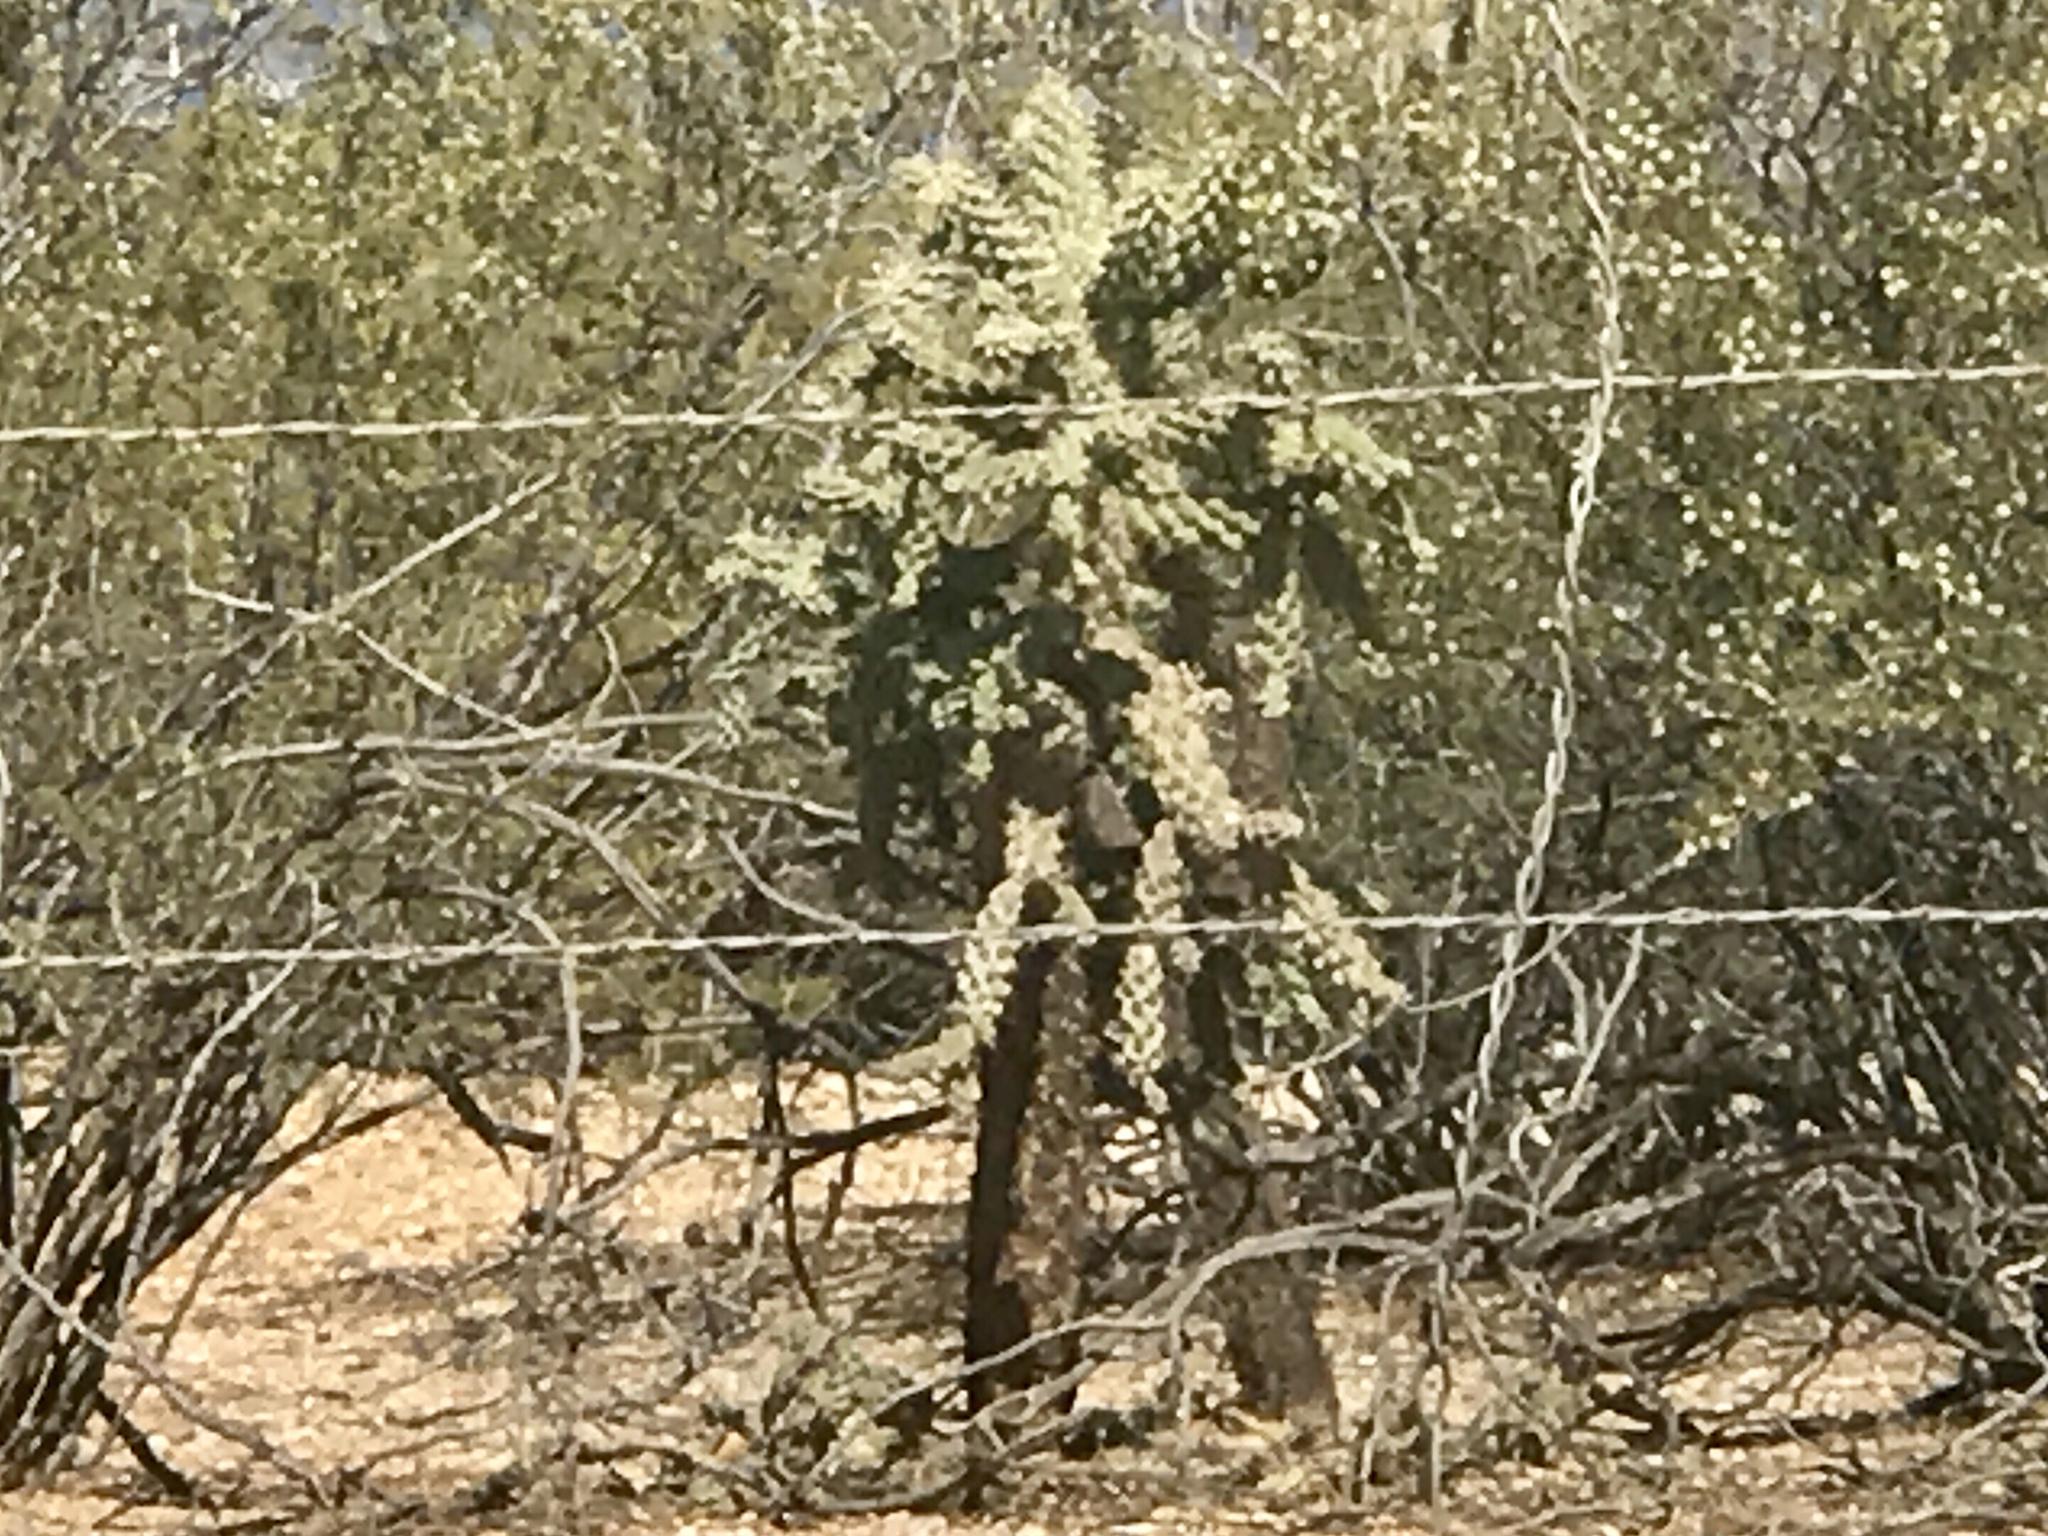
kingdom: Plantae
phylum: Tracheophyta
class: Magnoliopsida
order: Caryophyllales
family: Cactaceae
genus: Cylindropuntia
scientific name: Cylindropuntia fulgida
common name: Jumping cholla
